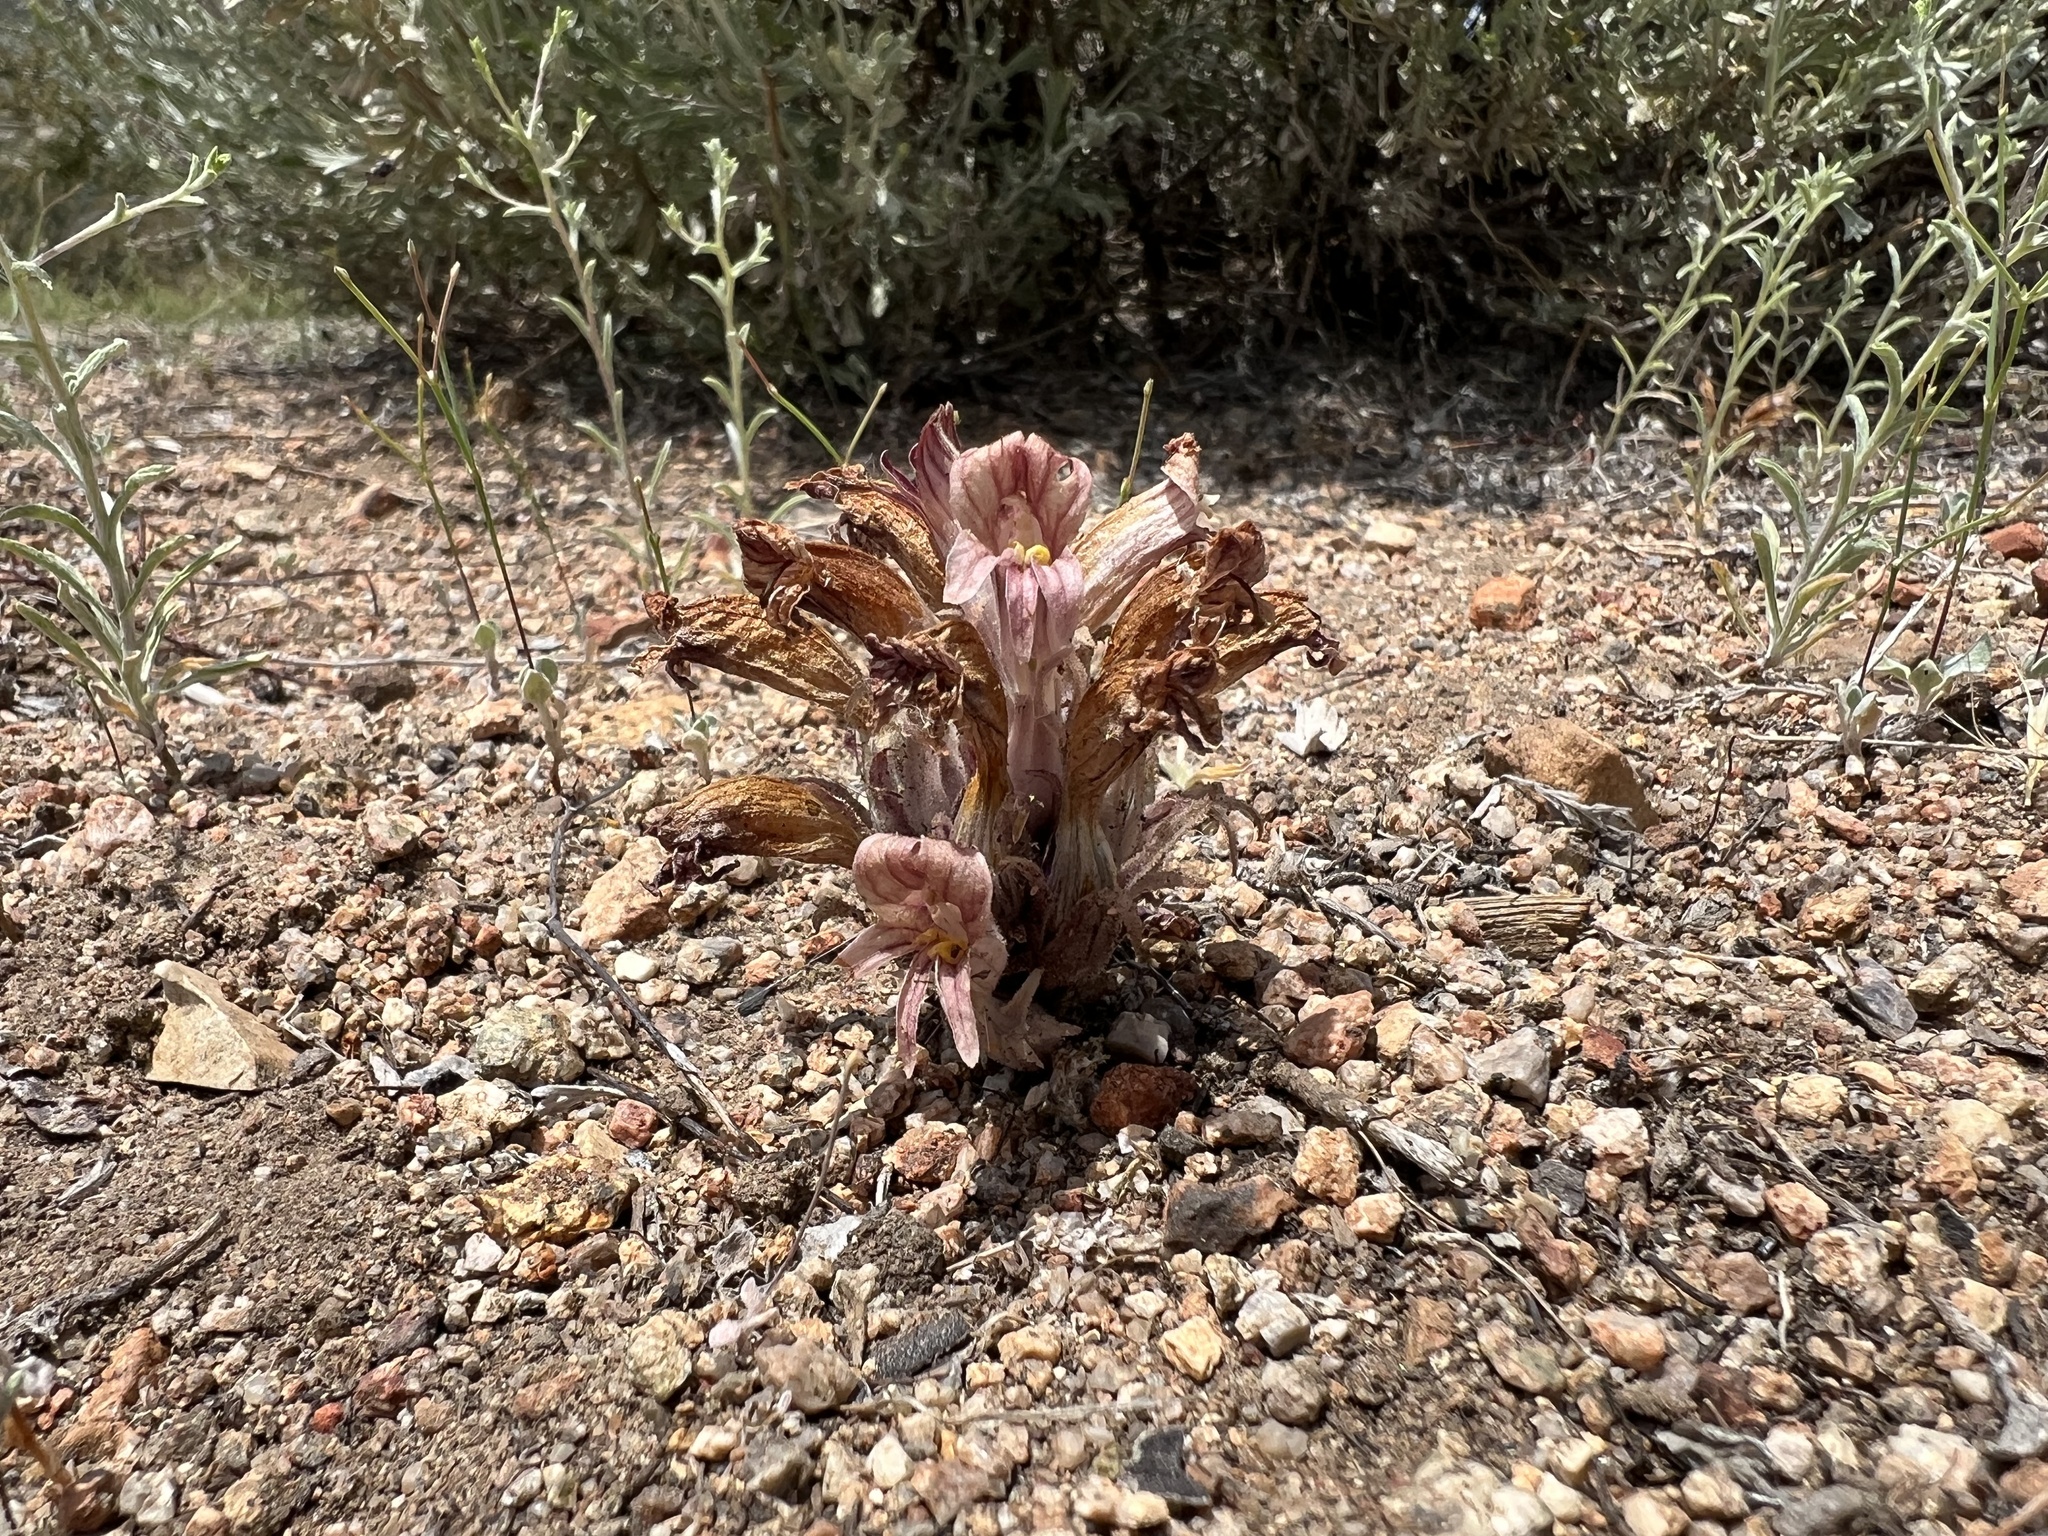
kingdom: Plantae
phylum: Tracheophyta
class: Magnoliopsida
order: Lamiales
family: Orobanchaceae
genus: Aphyllon
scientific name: Aphyllon corymbosum
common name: Flat-top broomrape
